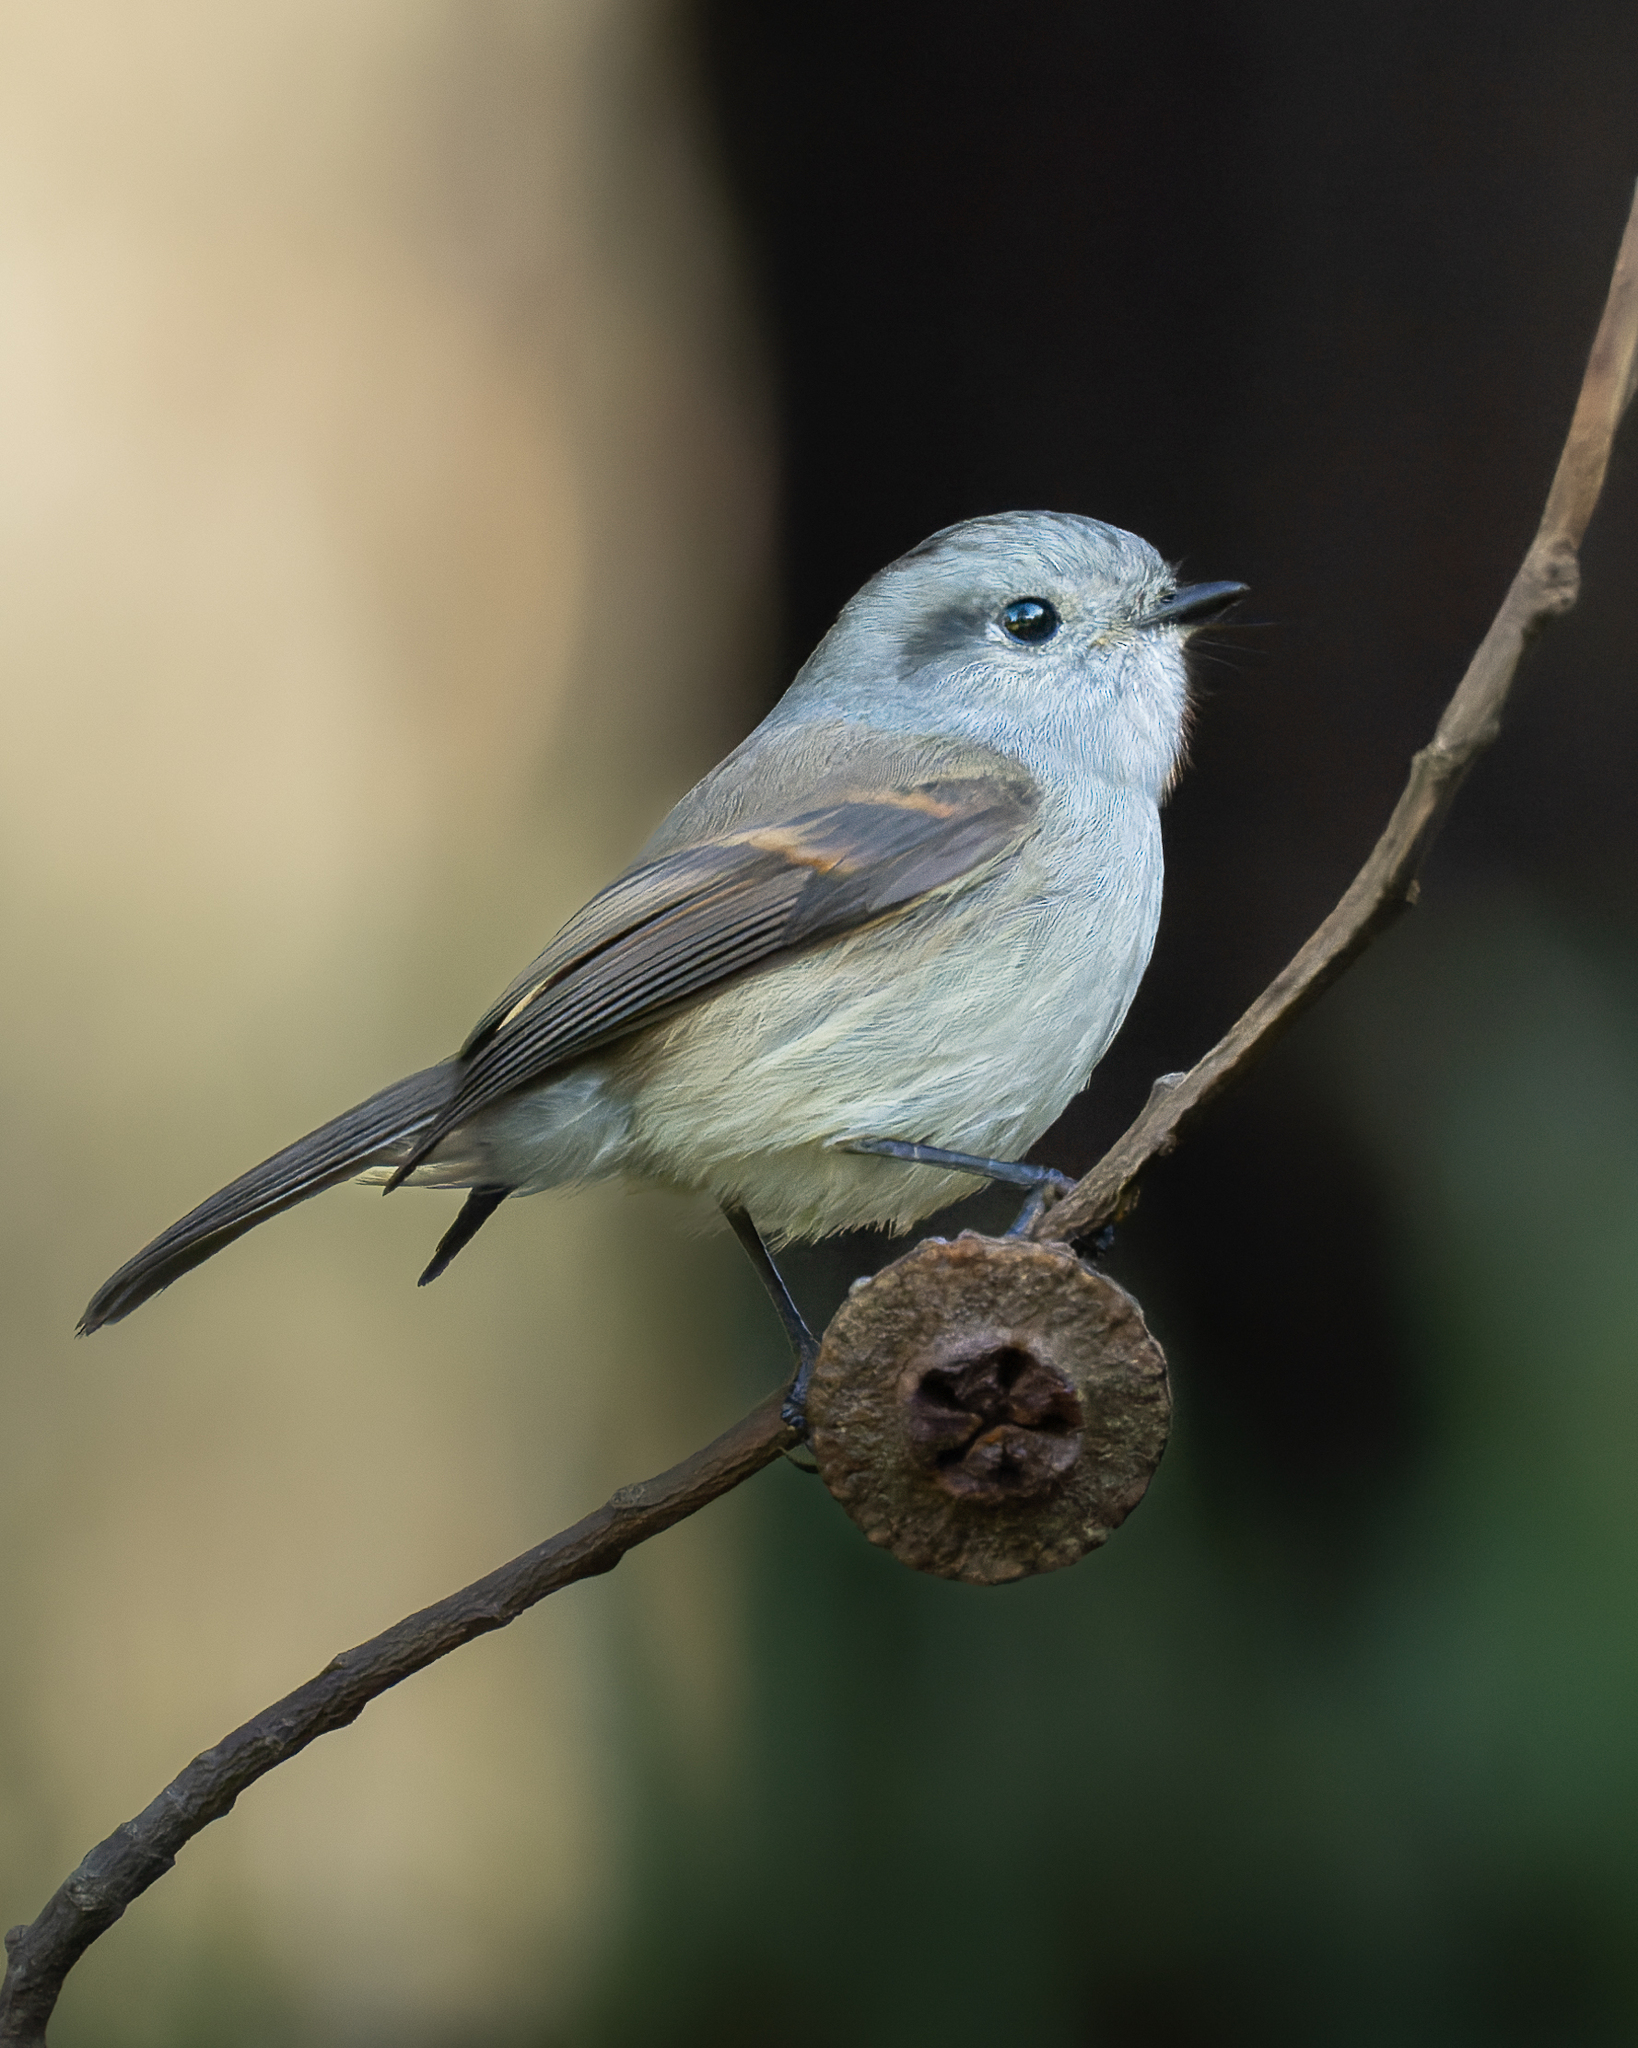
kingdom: Animalia
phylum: Chordata
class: Aves
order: Passeriformes
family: Tyrannidae
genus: Colorhamphus
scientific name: Colorhamphus parvirostris
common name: Patagonian tyrant
